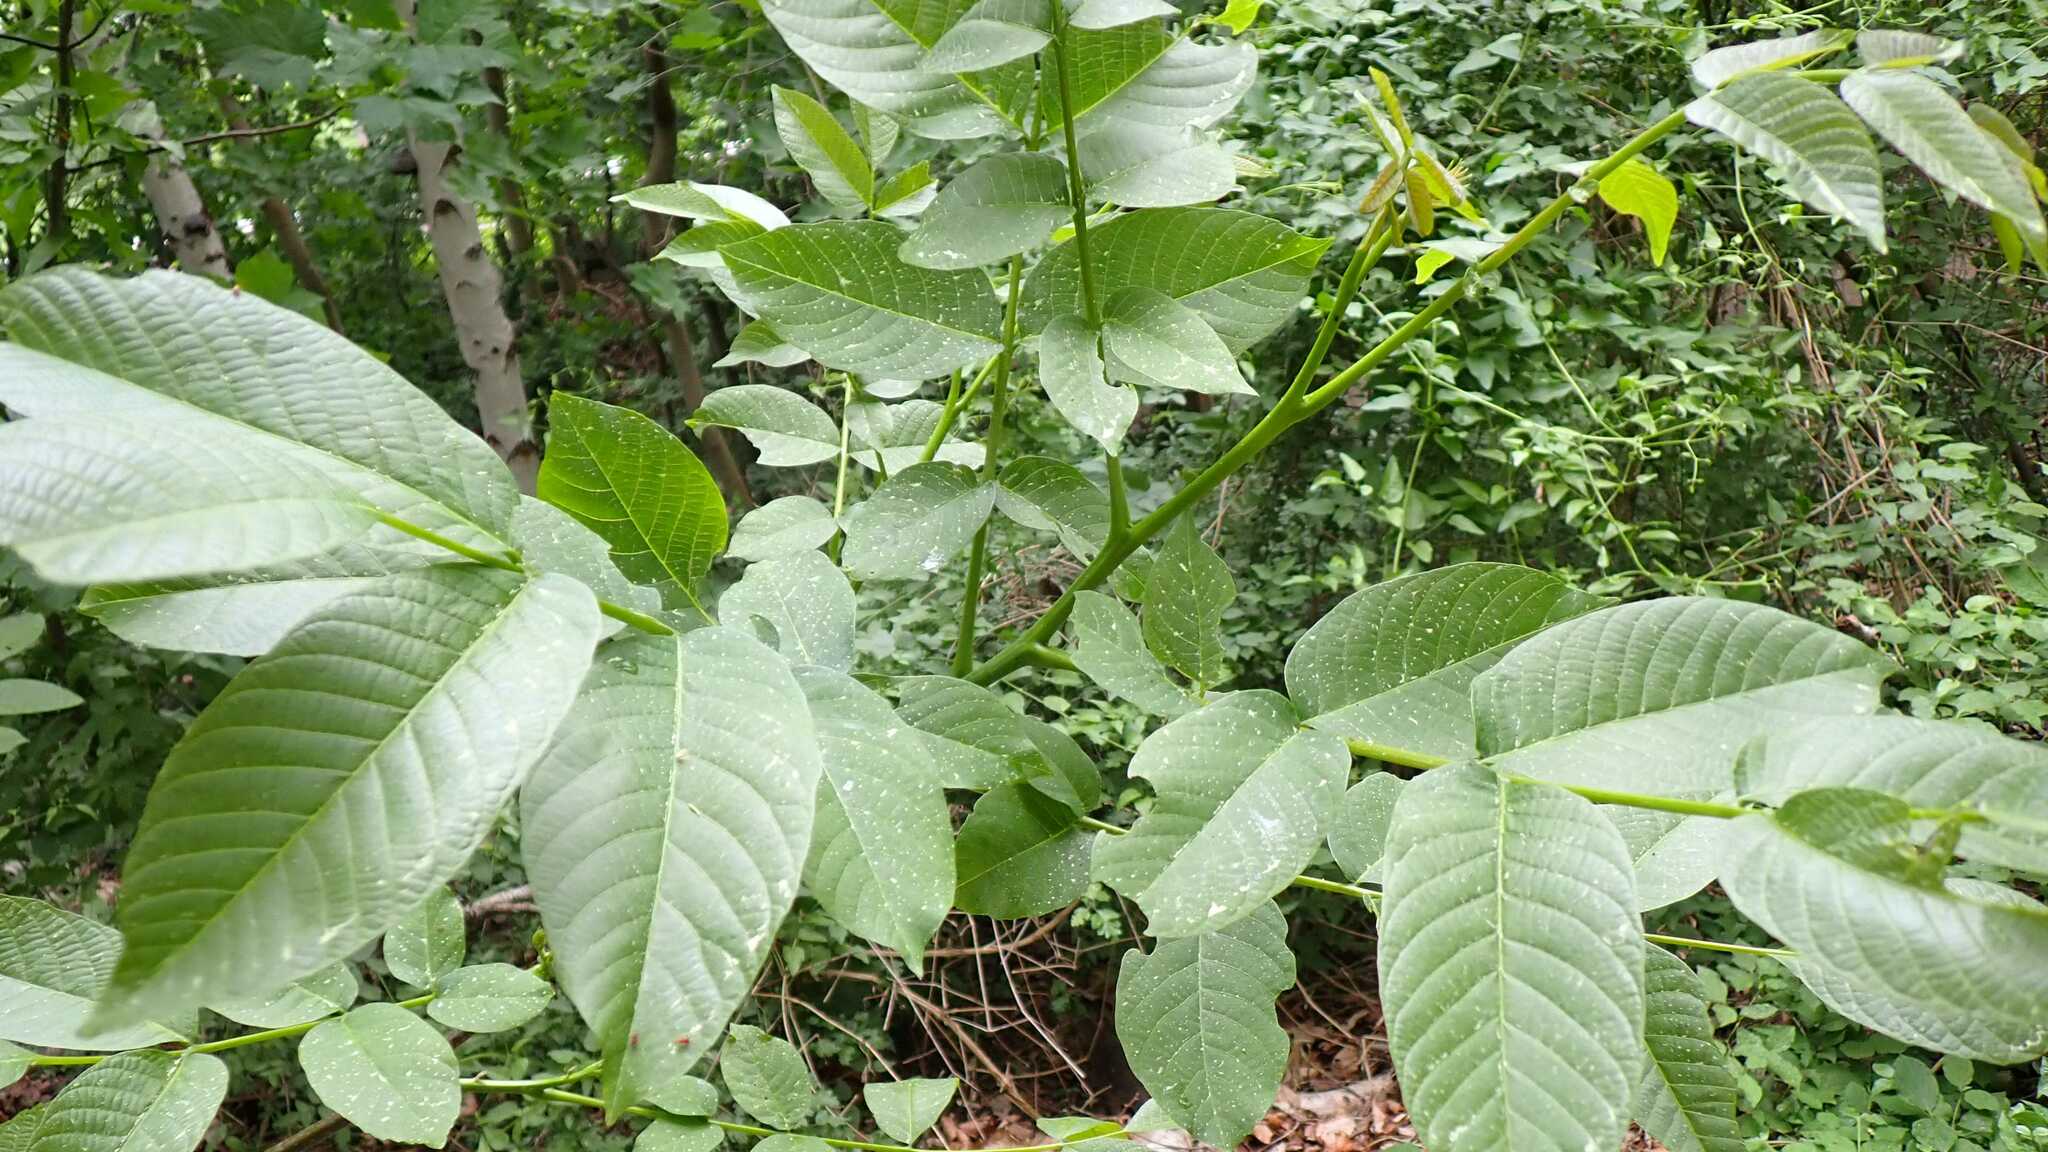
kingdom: Plantae
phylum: Tracheophyta
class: Magnoliopsida
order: Fagales
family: Juglandaceae
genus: Juglans
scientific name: Juglans regia
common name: Walnut
